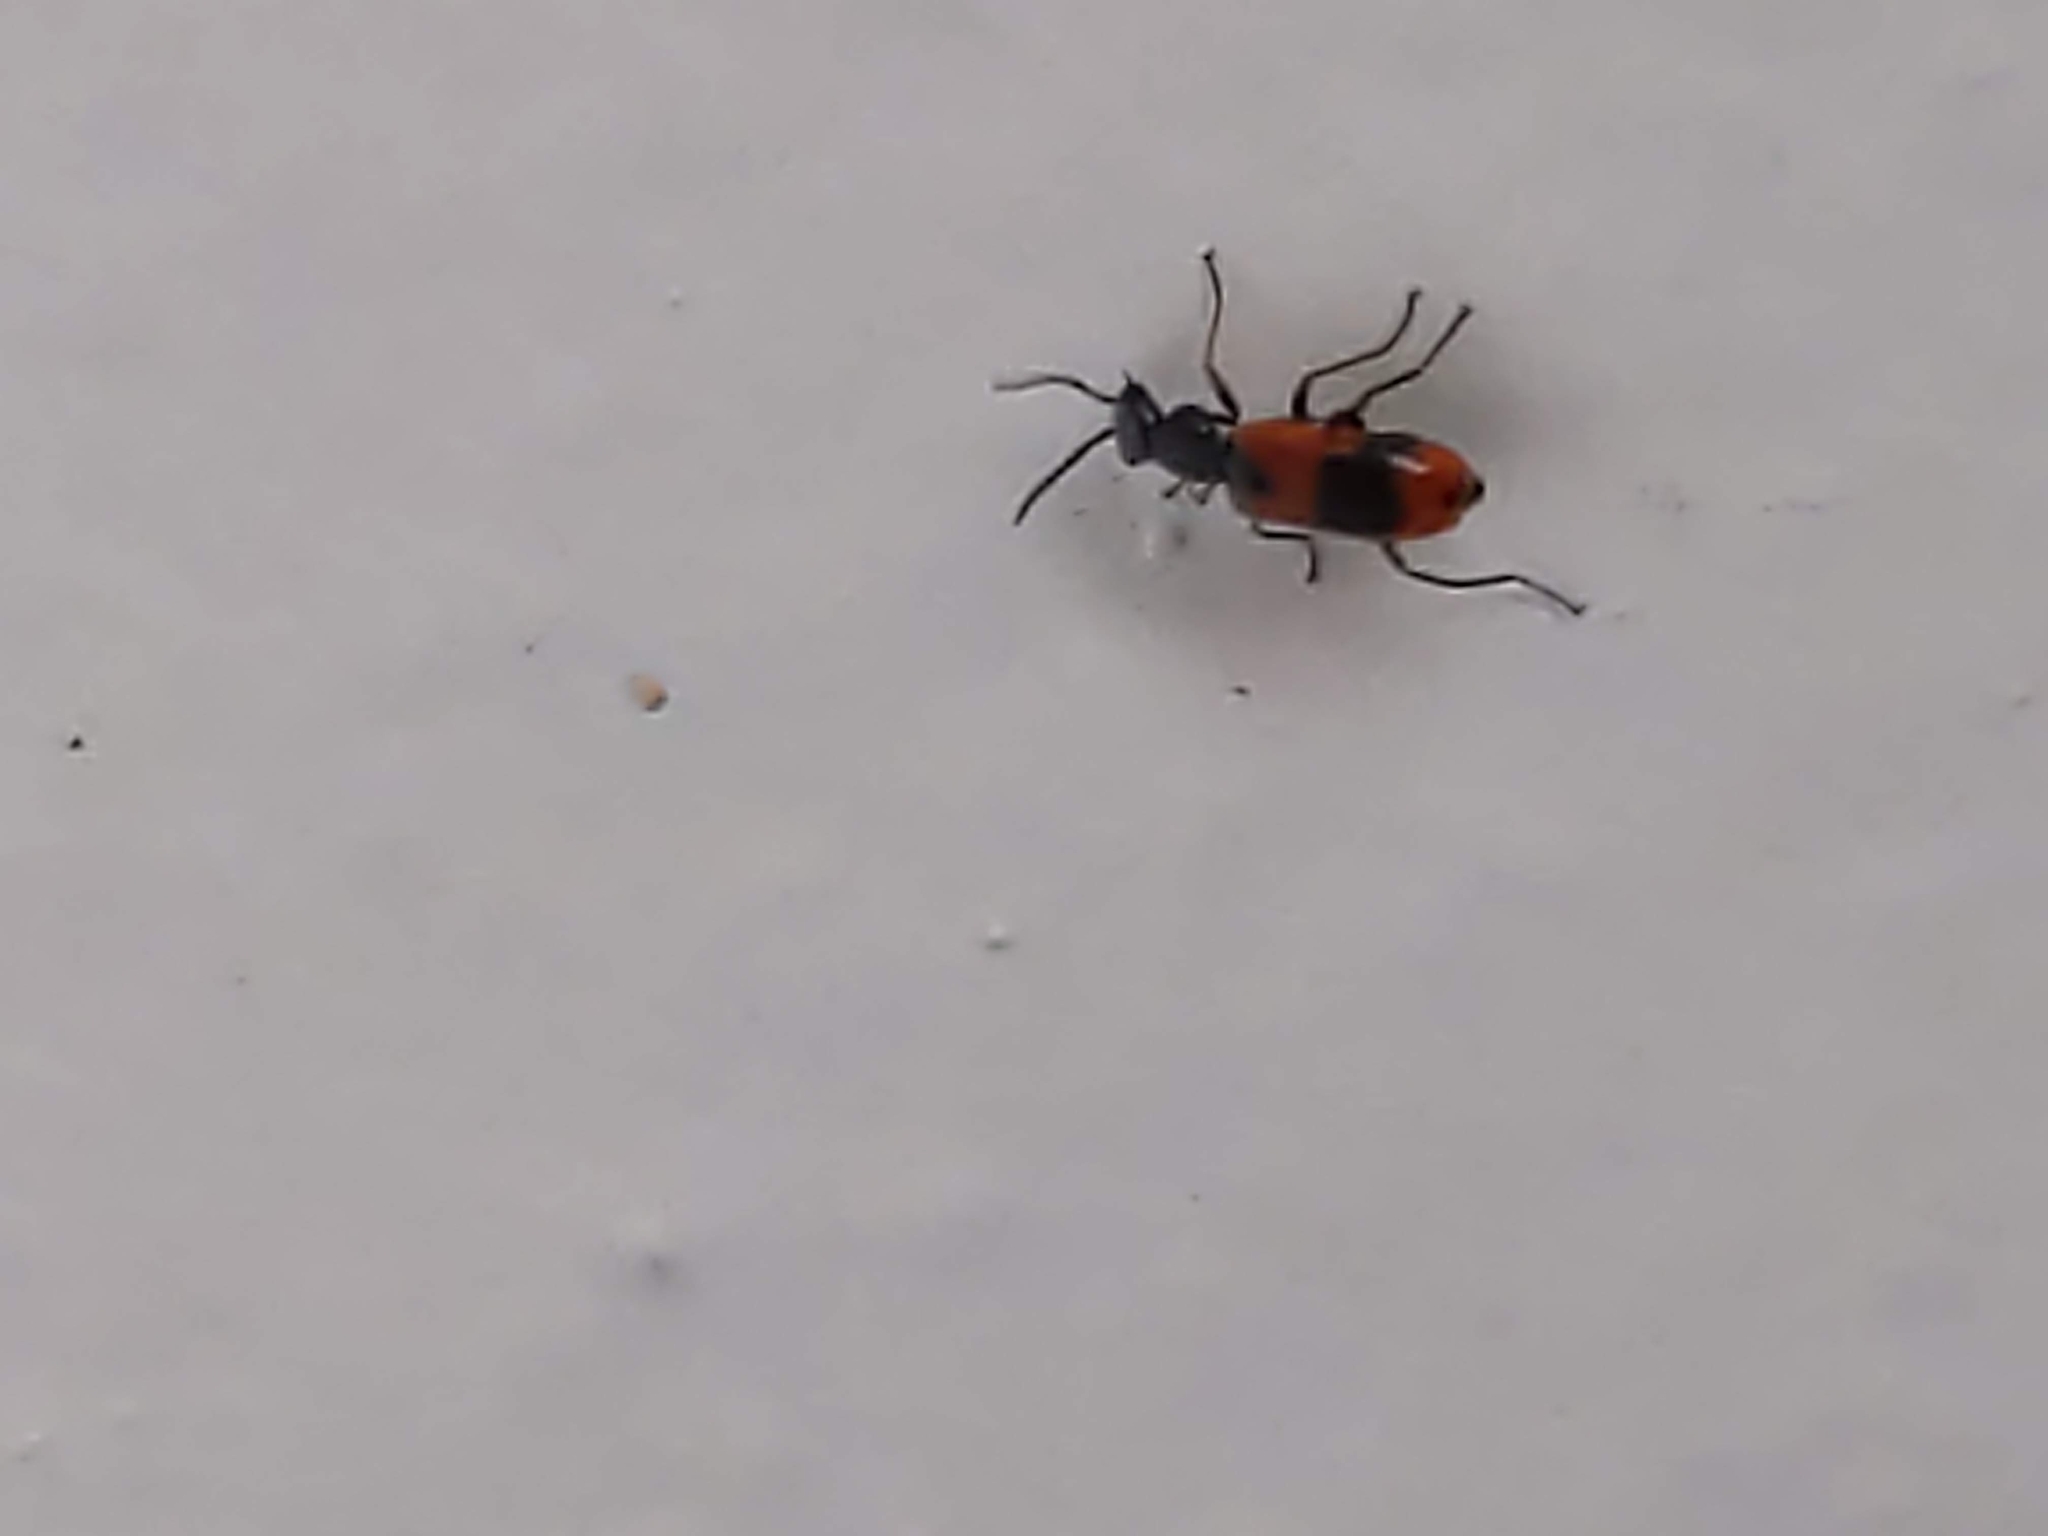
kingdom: Animalia
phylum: Arthropoda
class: Insecta
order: Coleoptera
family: Melyridae
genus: Anthocomus
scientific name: Anthocomus equestris
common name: Black-banded soft-winged flower beetle
